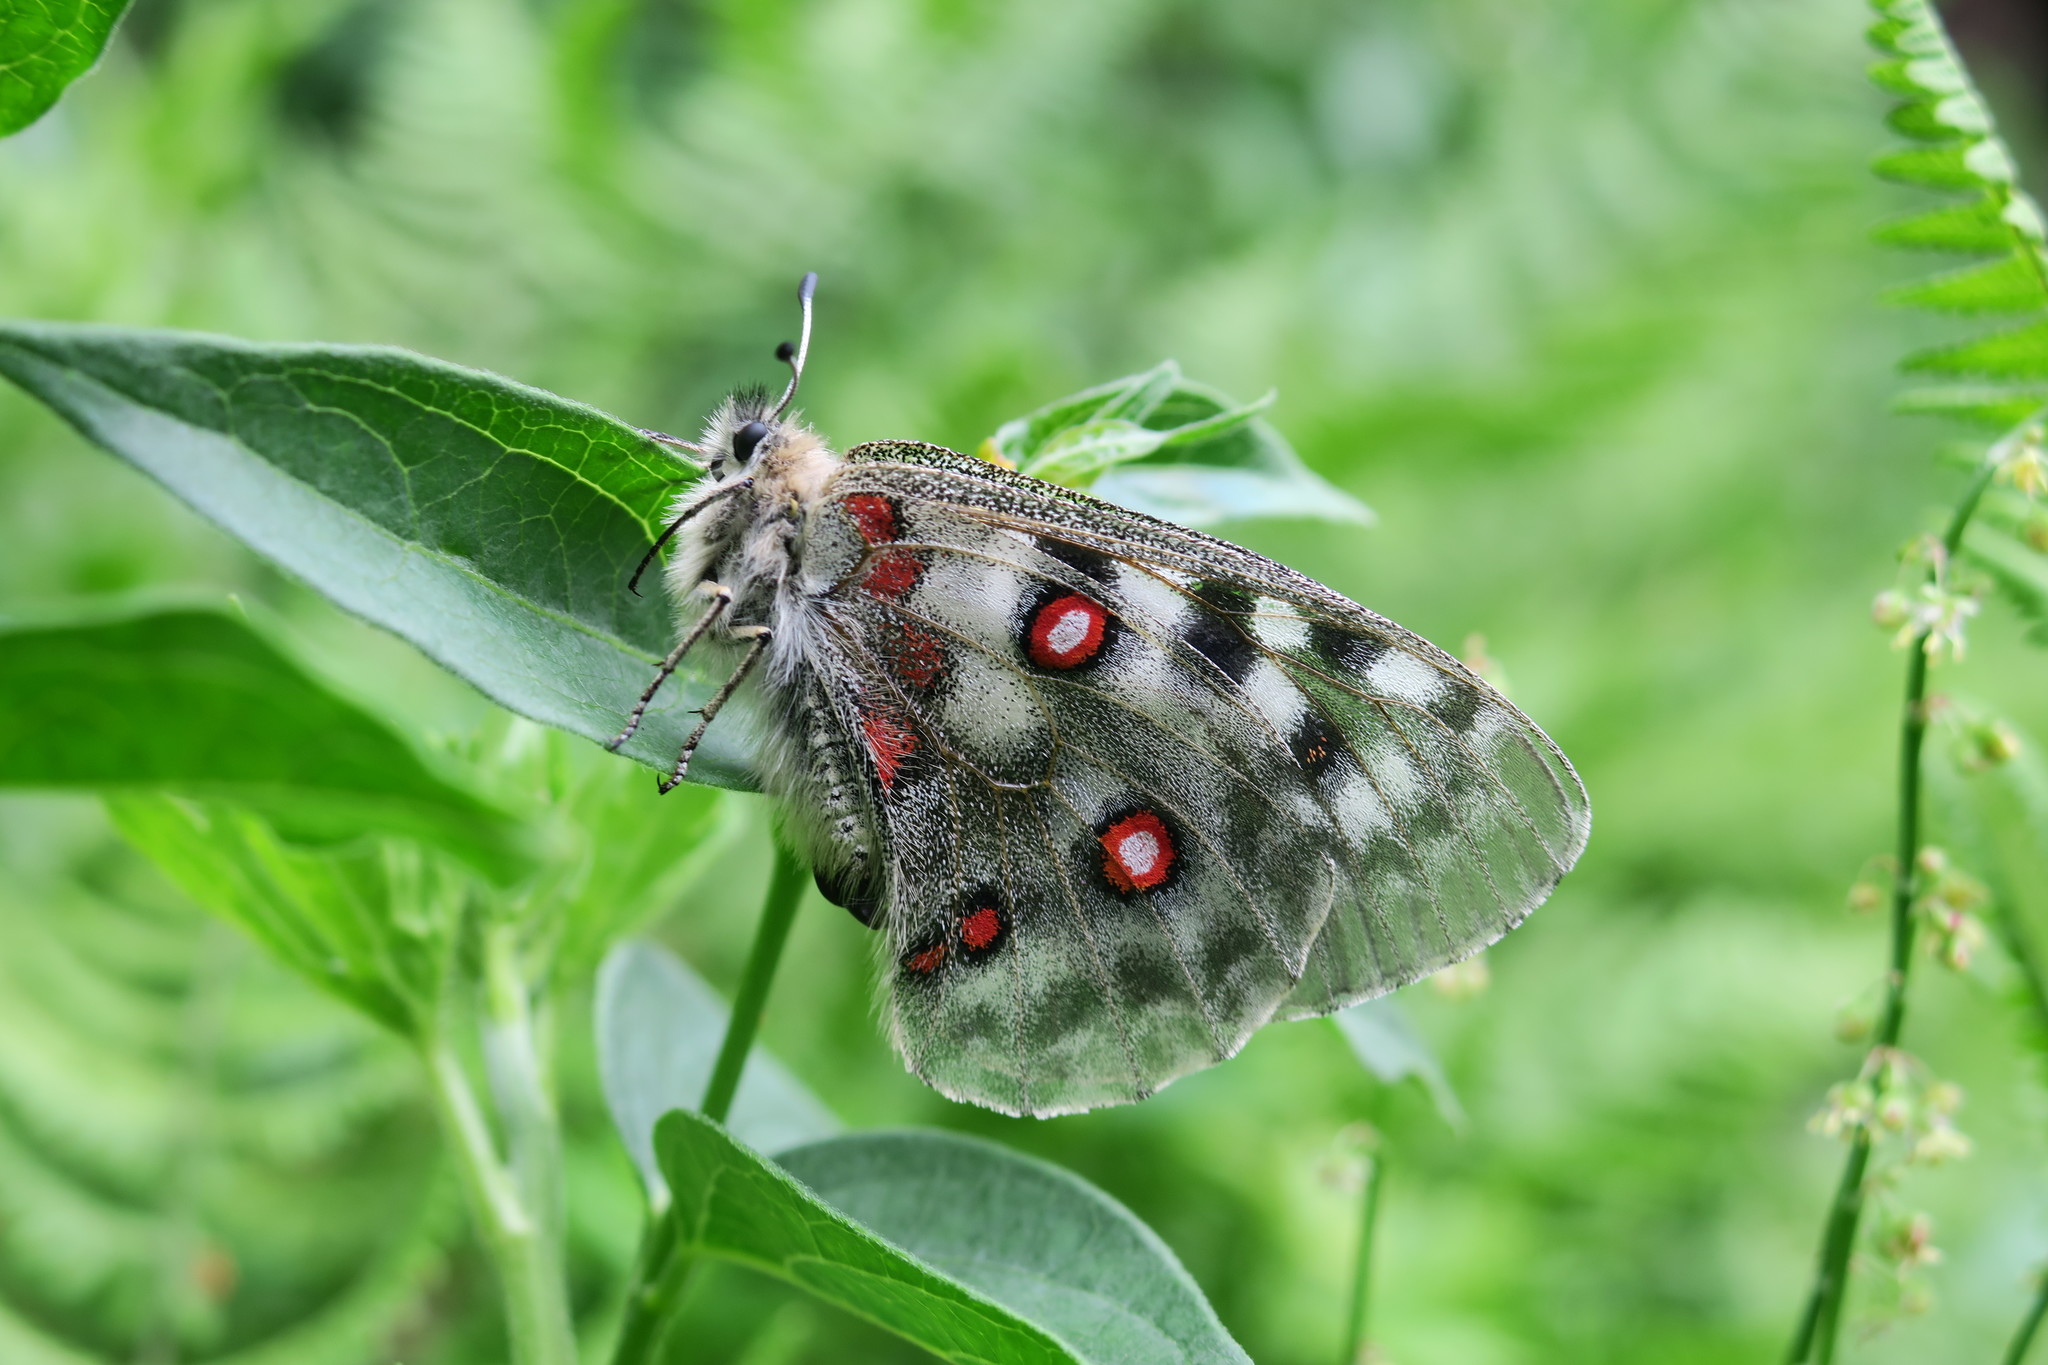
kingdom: Animalia
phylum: Arthropoda
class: Insecta
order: Lepidoptera
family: Papilionidae
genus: Parnassius
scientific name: Parnassius apollo
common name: Apollo
